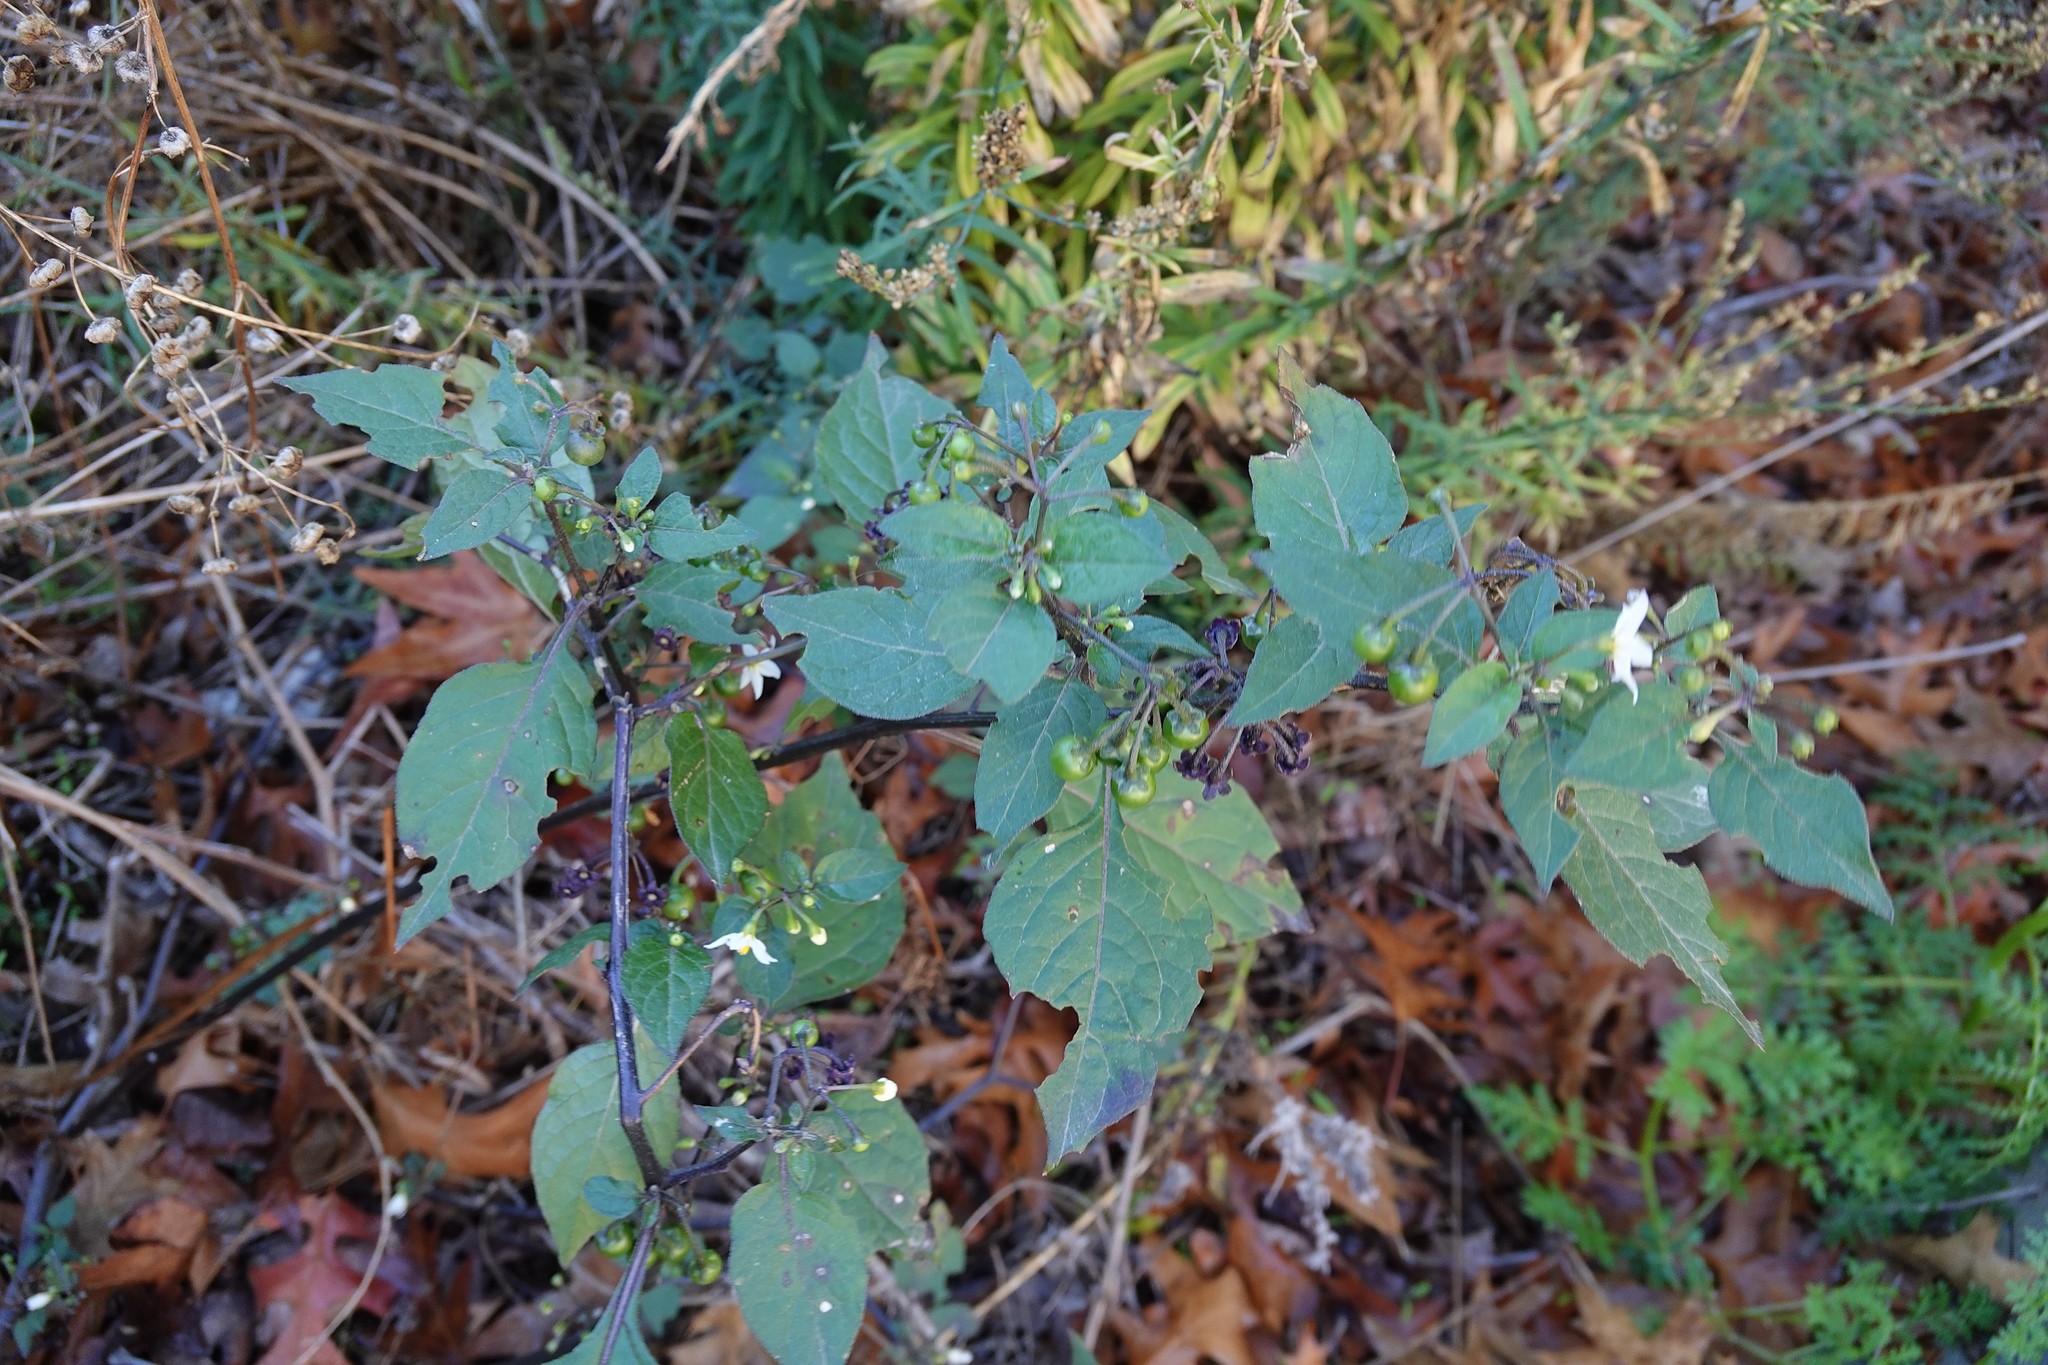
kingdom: Plantae
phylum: Tracheophyta
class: Magnoliopsida
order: Solanales
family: Solanaceae
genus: Solanum
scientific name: Solanum nigrum
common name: Black nightshade
